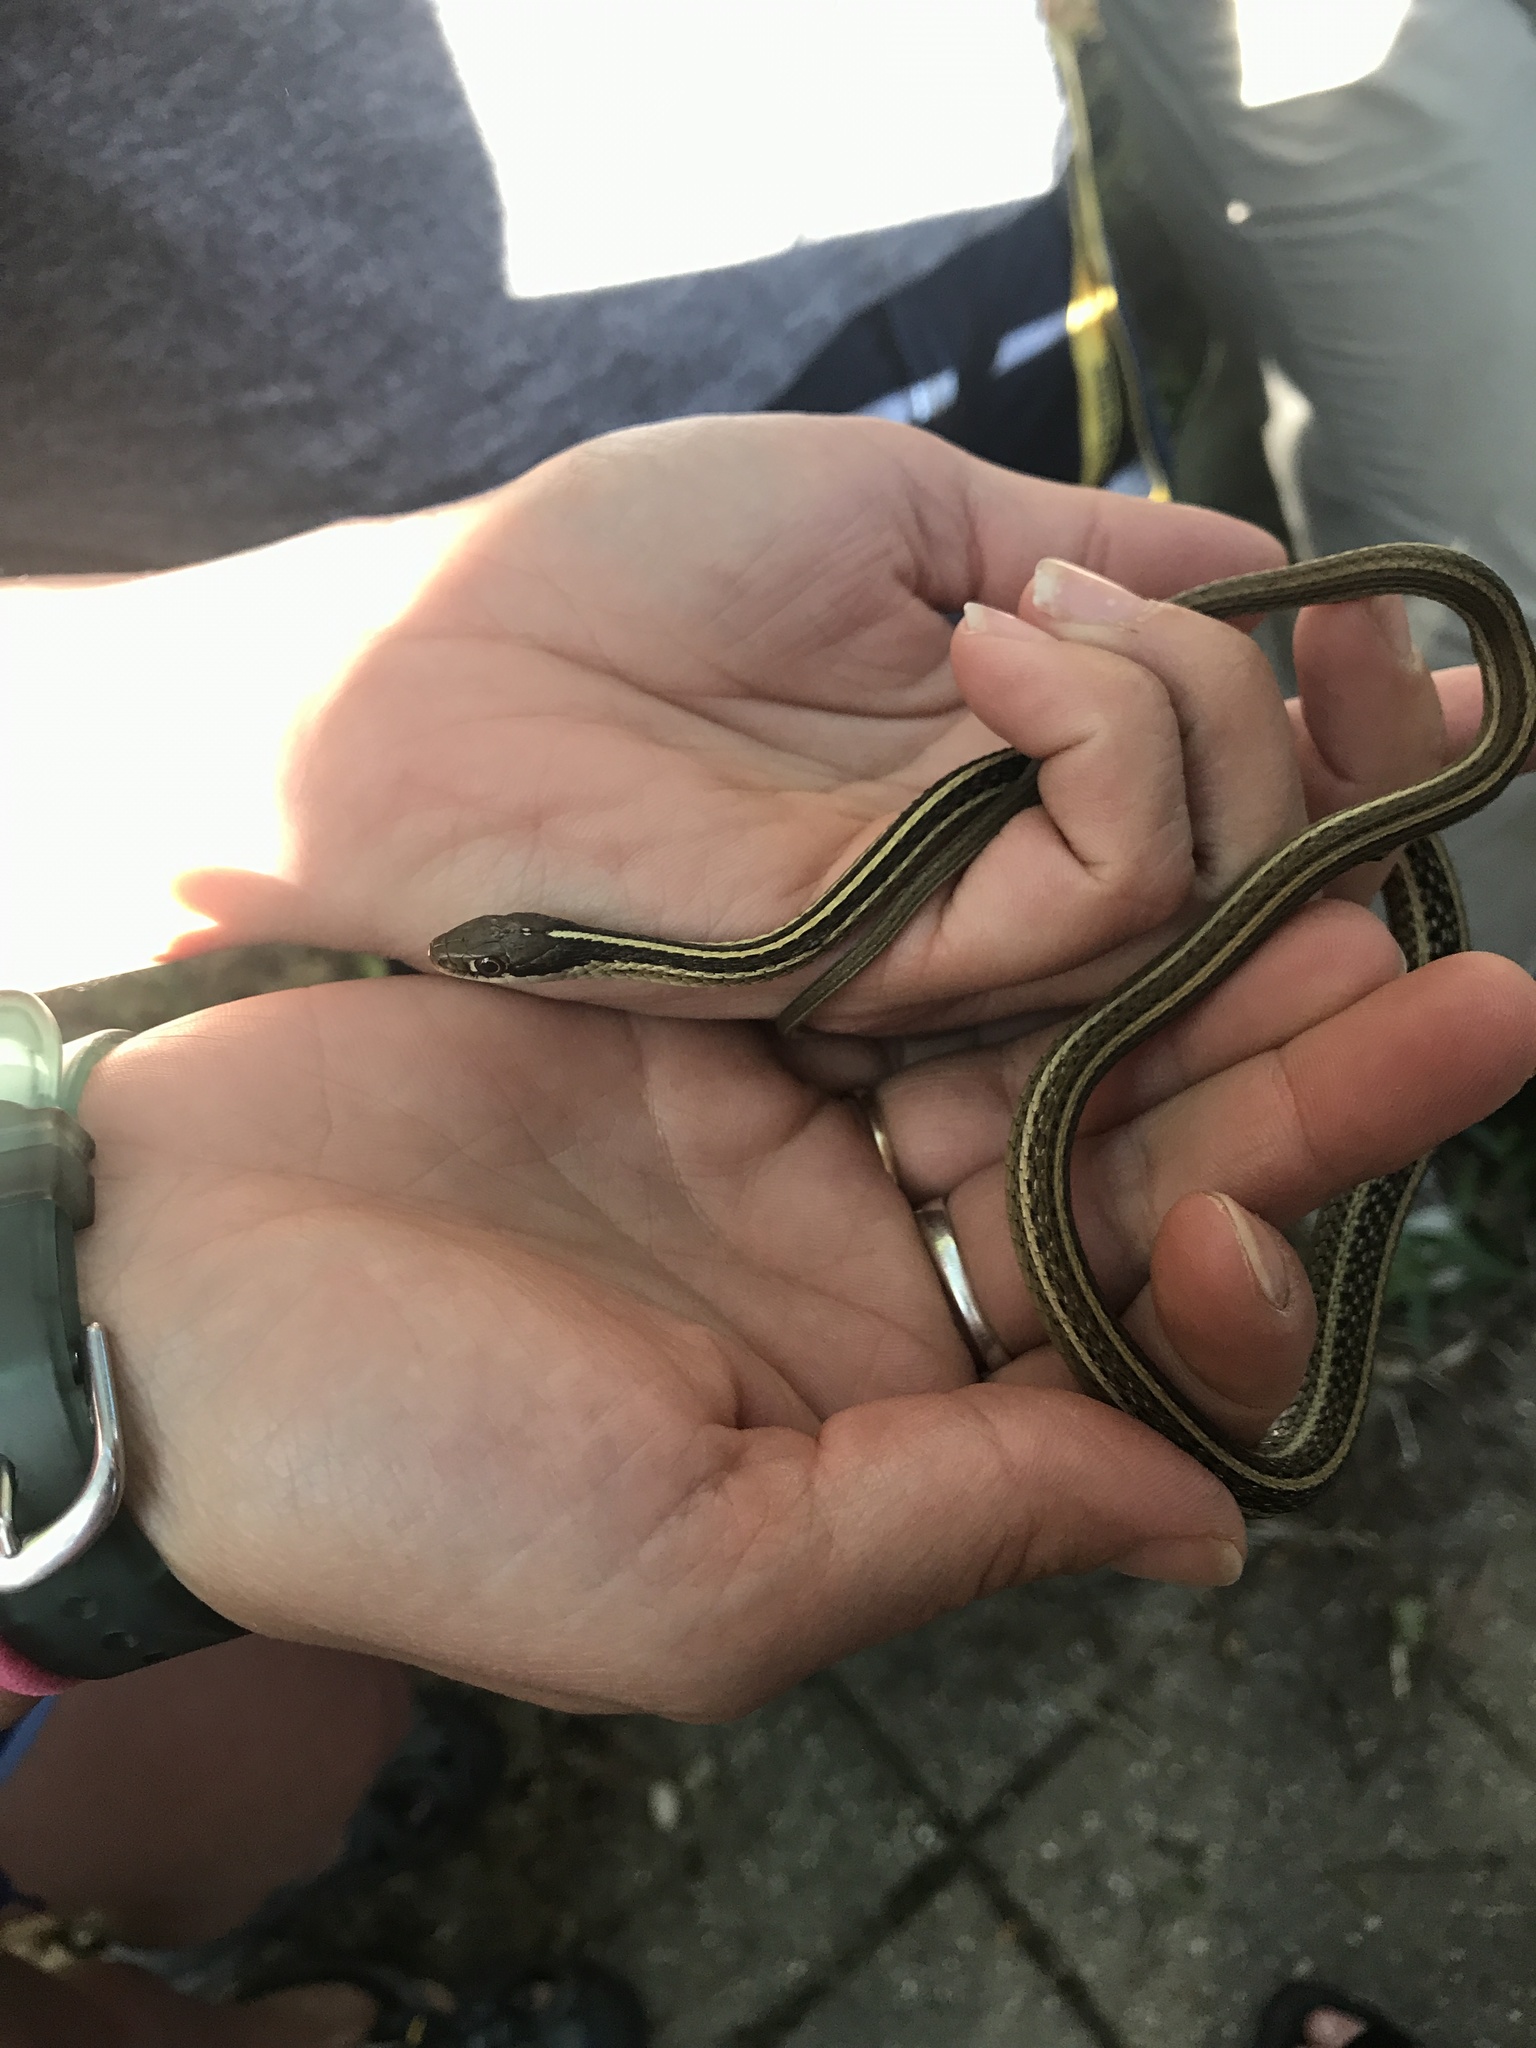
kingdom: Animalia
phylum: Chordata
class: Squamata
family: Colubridae
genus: Thamnophis
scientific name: Thamnophis saurita
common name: Eastern ribbonsnake
